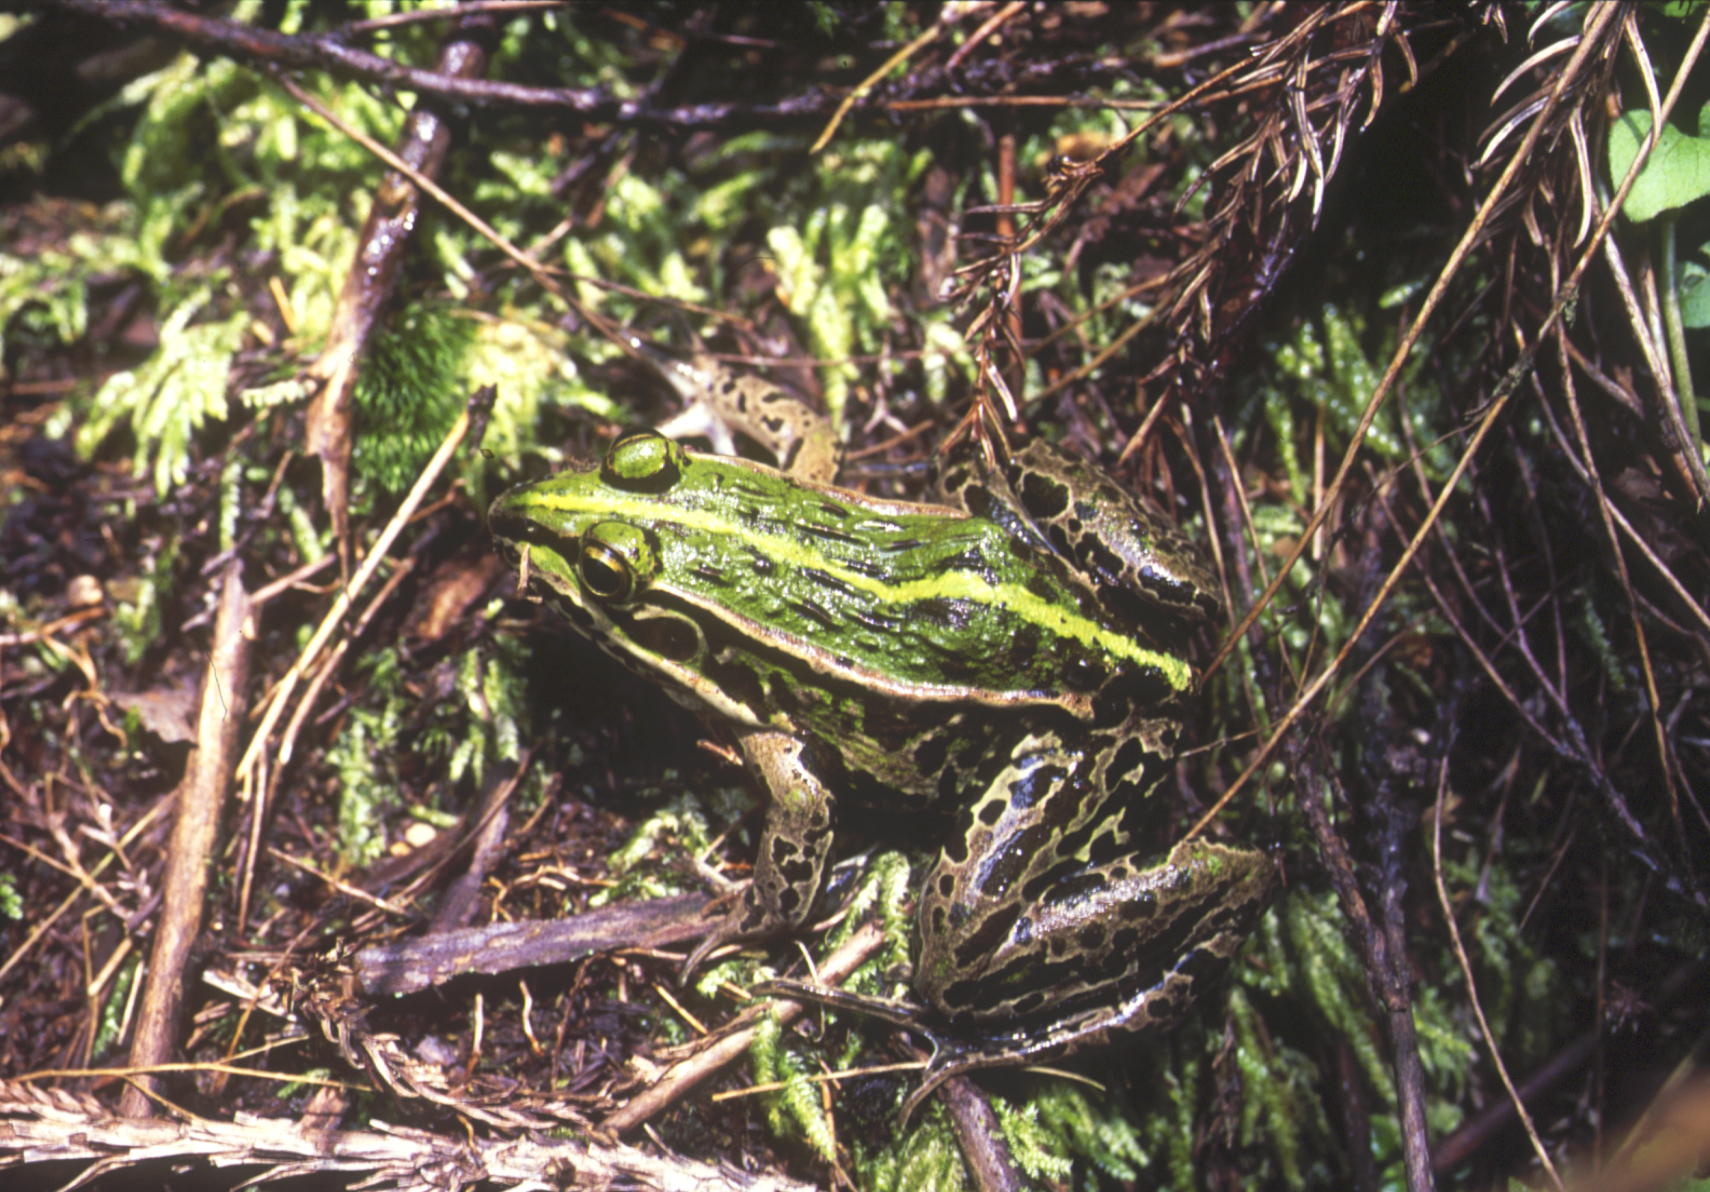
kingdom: Animalia
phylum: Chordata
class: Amphibia
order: Anura
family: Ranidae
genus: Pelophylax
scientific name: Pelophylax nigromaculatus
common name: Black-spotted pond frog
